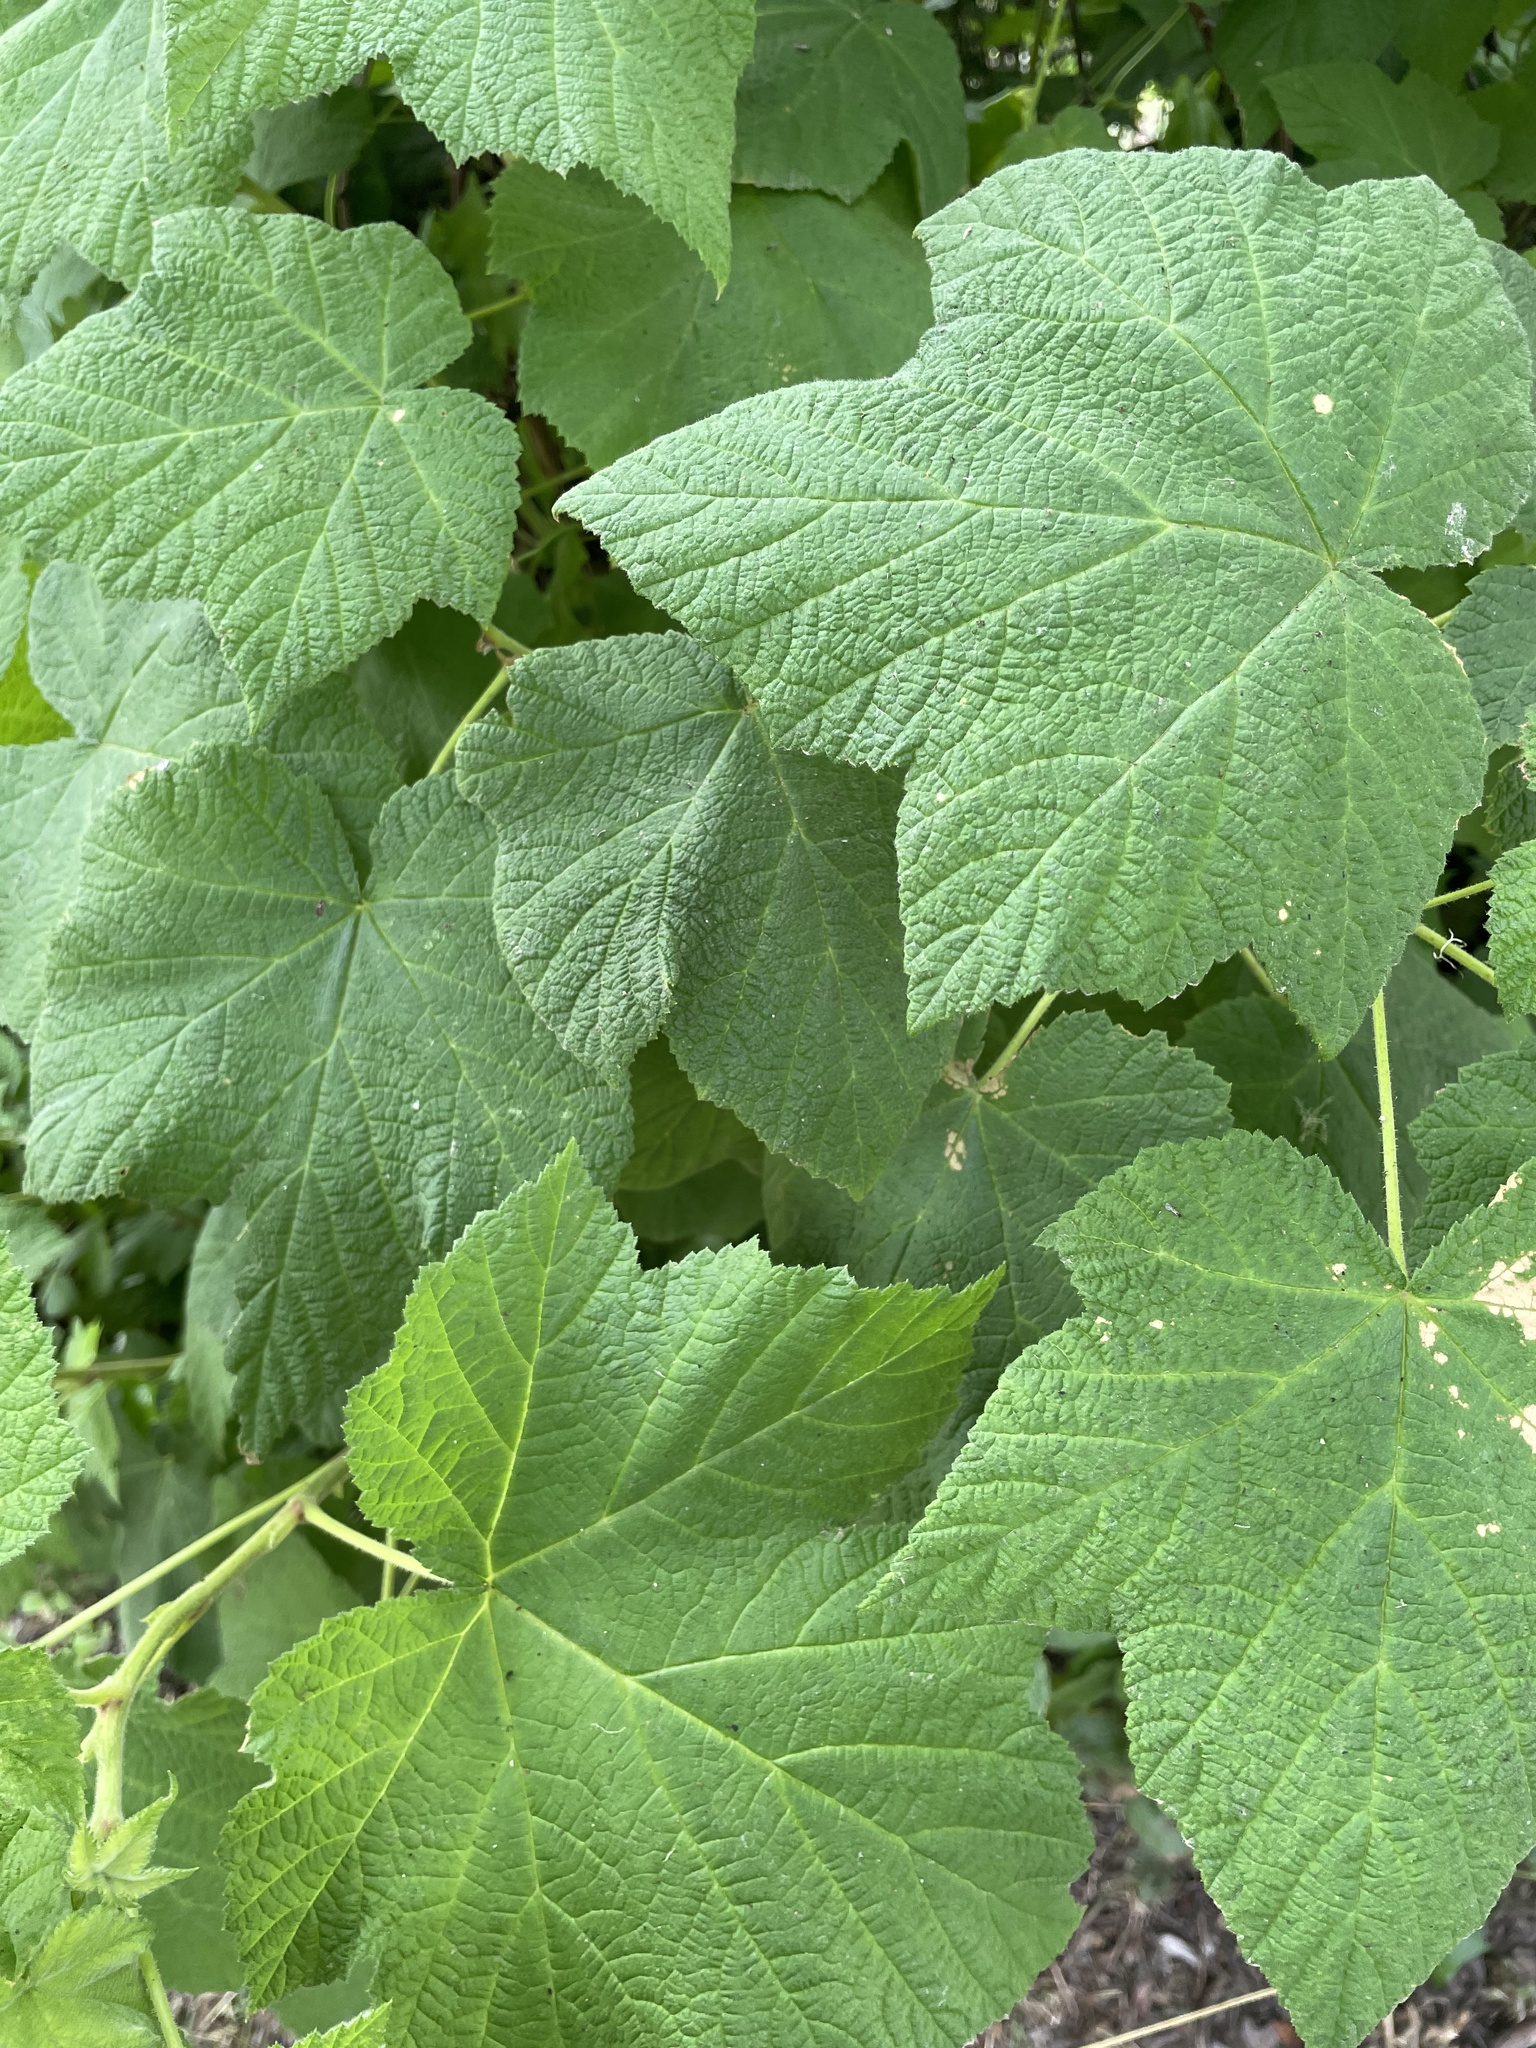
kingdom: Plantae
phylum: Tracheophyta
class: Magnoliopsida
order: Rosales
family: Rosaceae
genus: Rubus
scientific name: Rubus parviflorus
